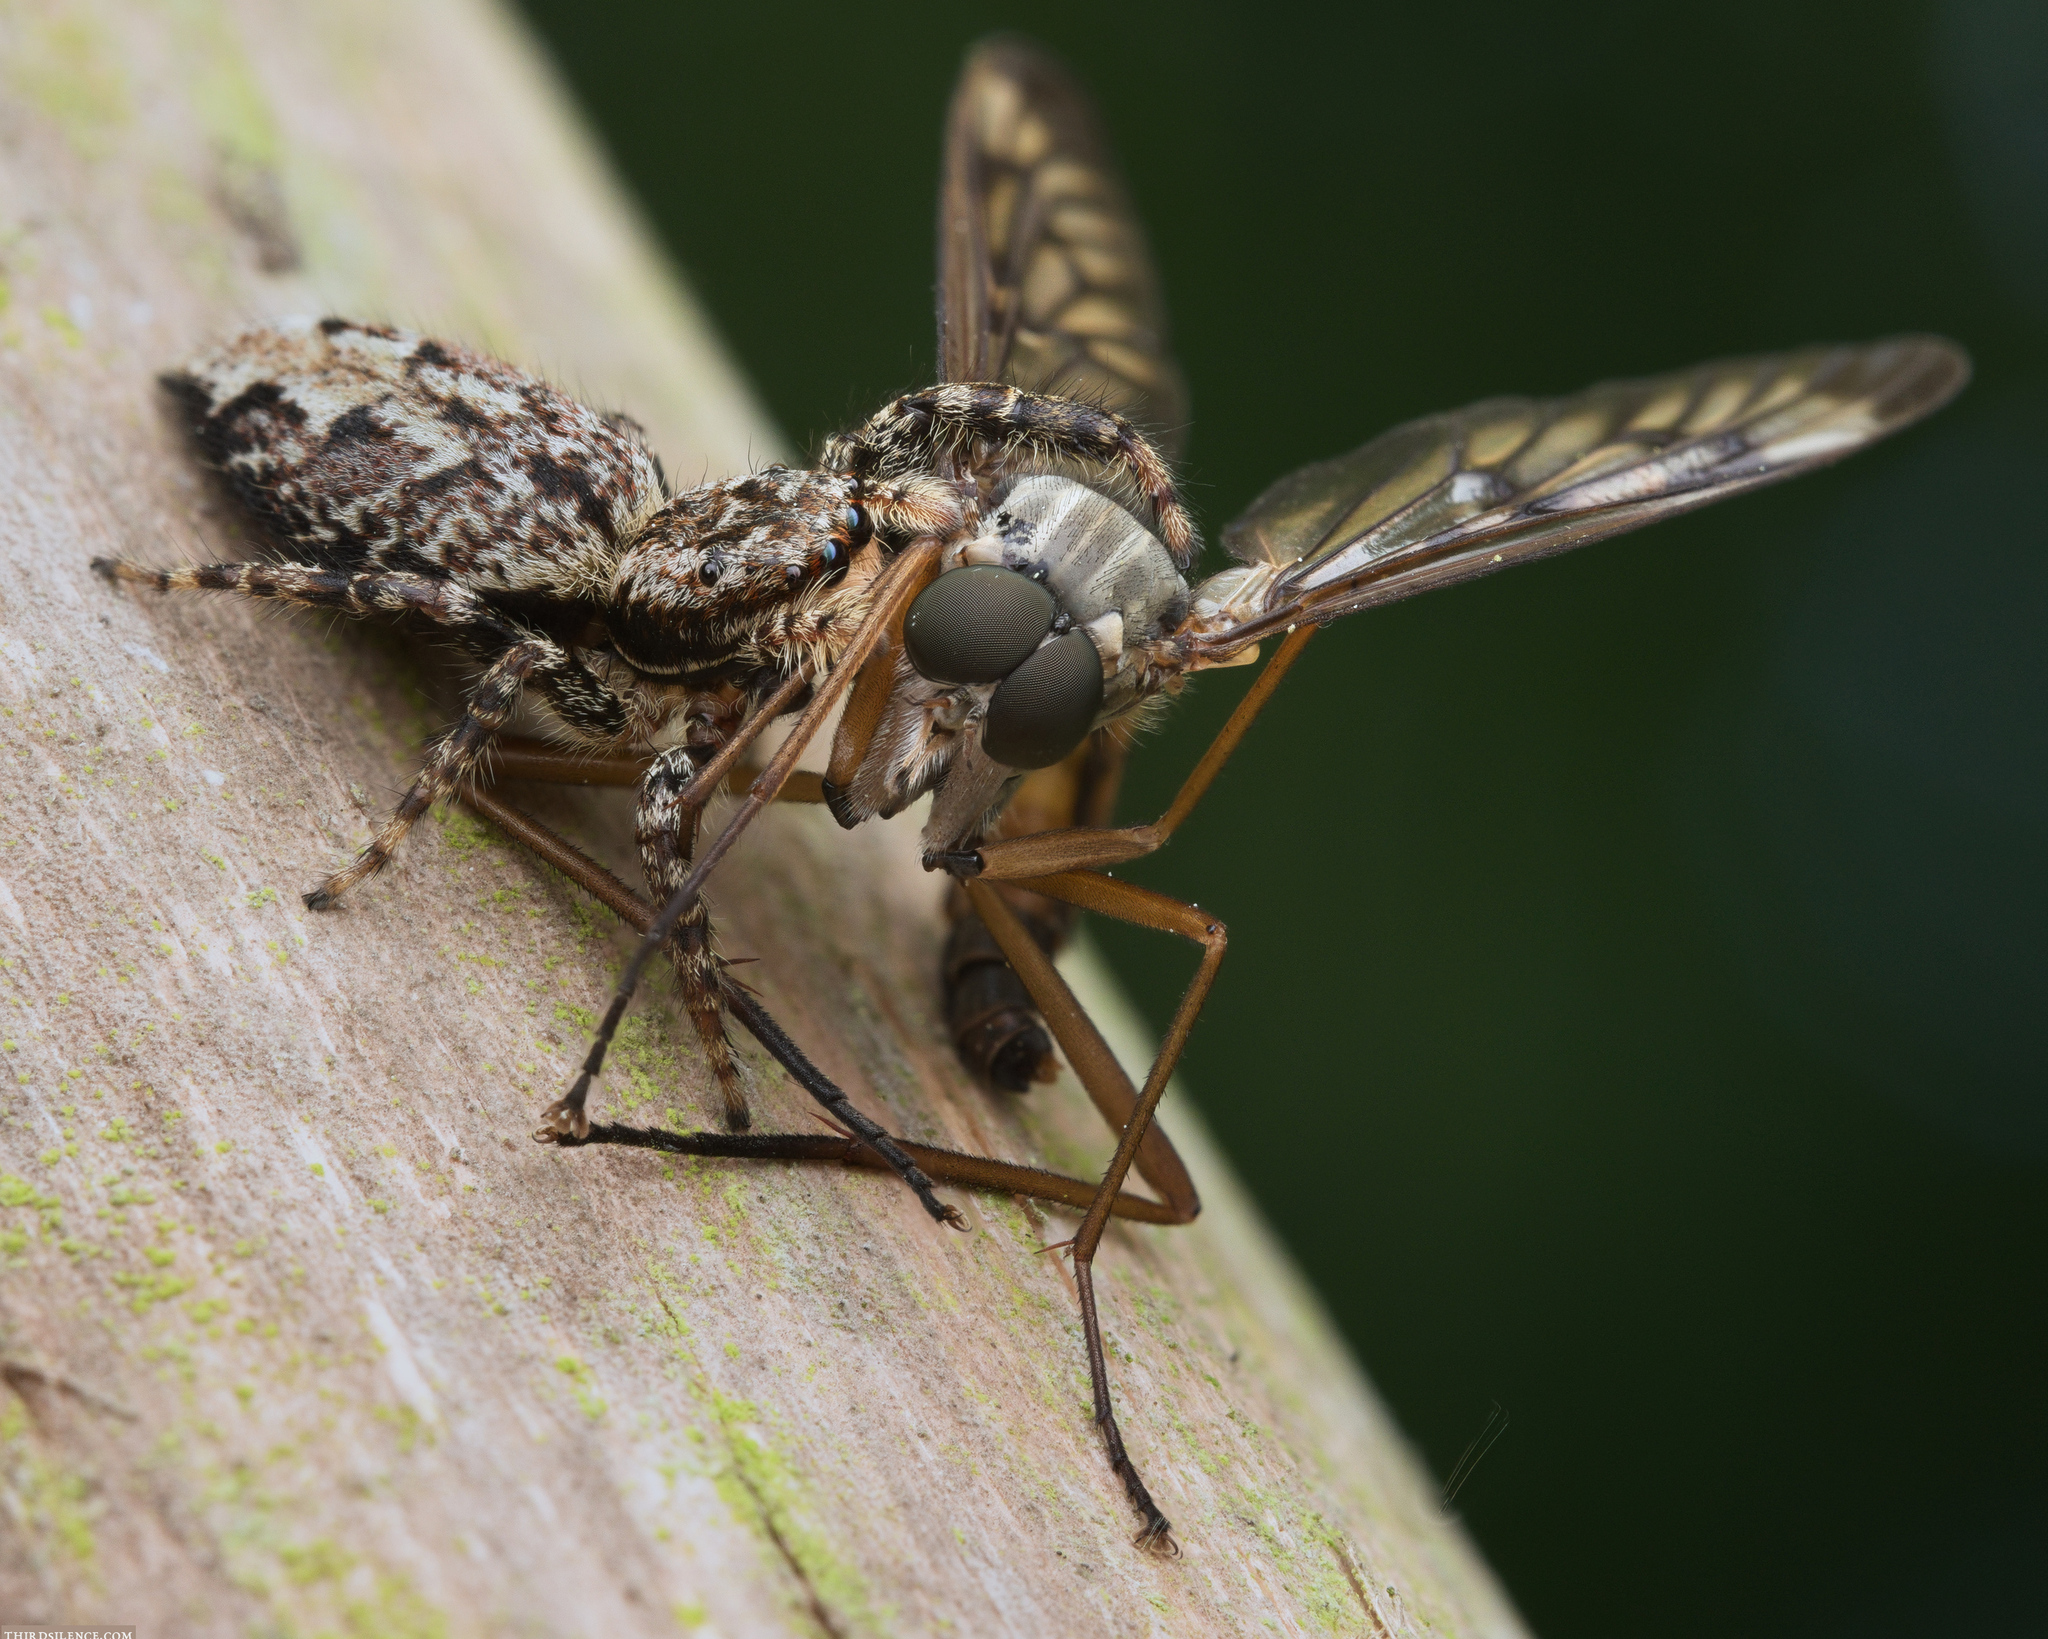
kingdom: Animalia
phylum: Arthropoda
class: Arachnida
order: Araneae
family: Salticidae
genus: Marpissa
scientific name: Marpissa muscosa
